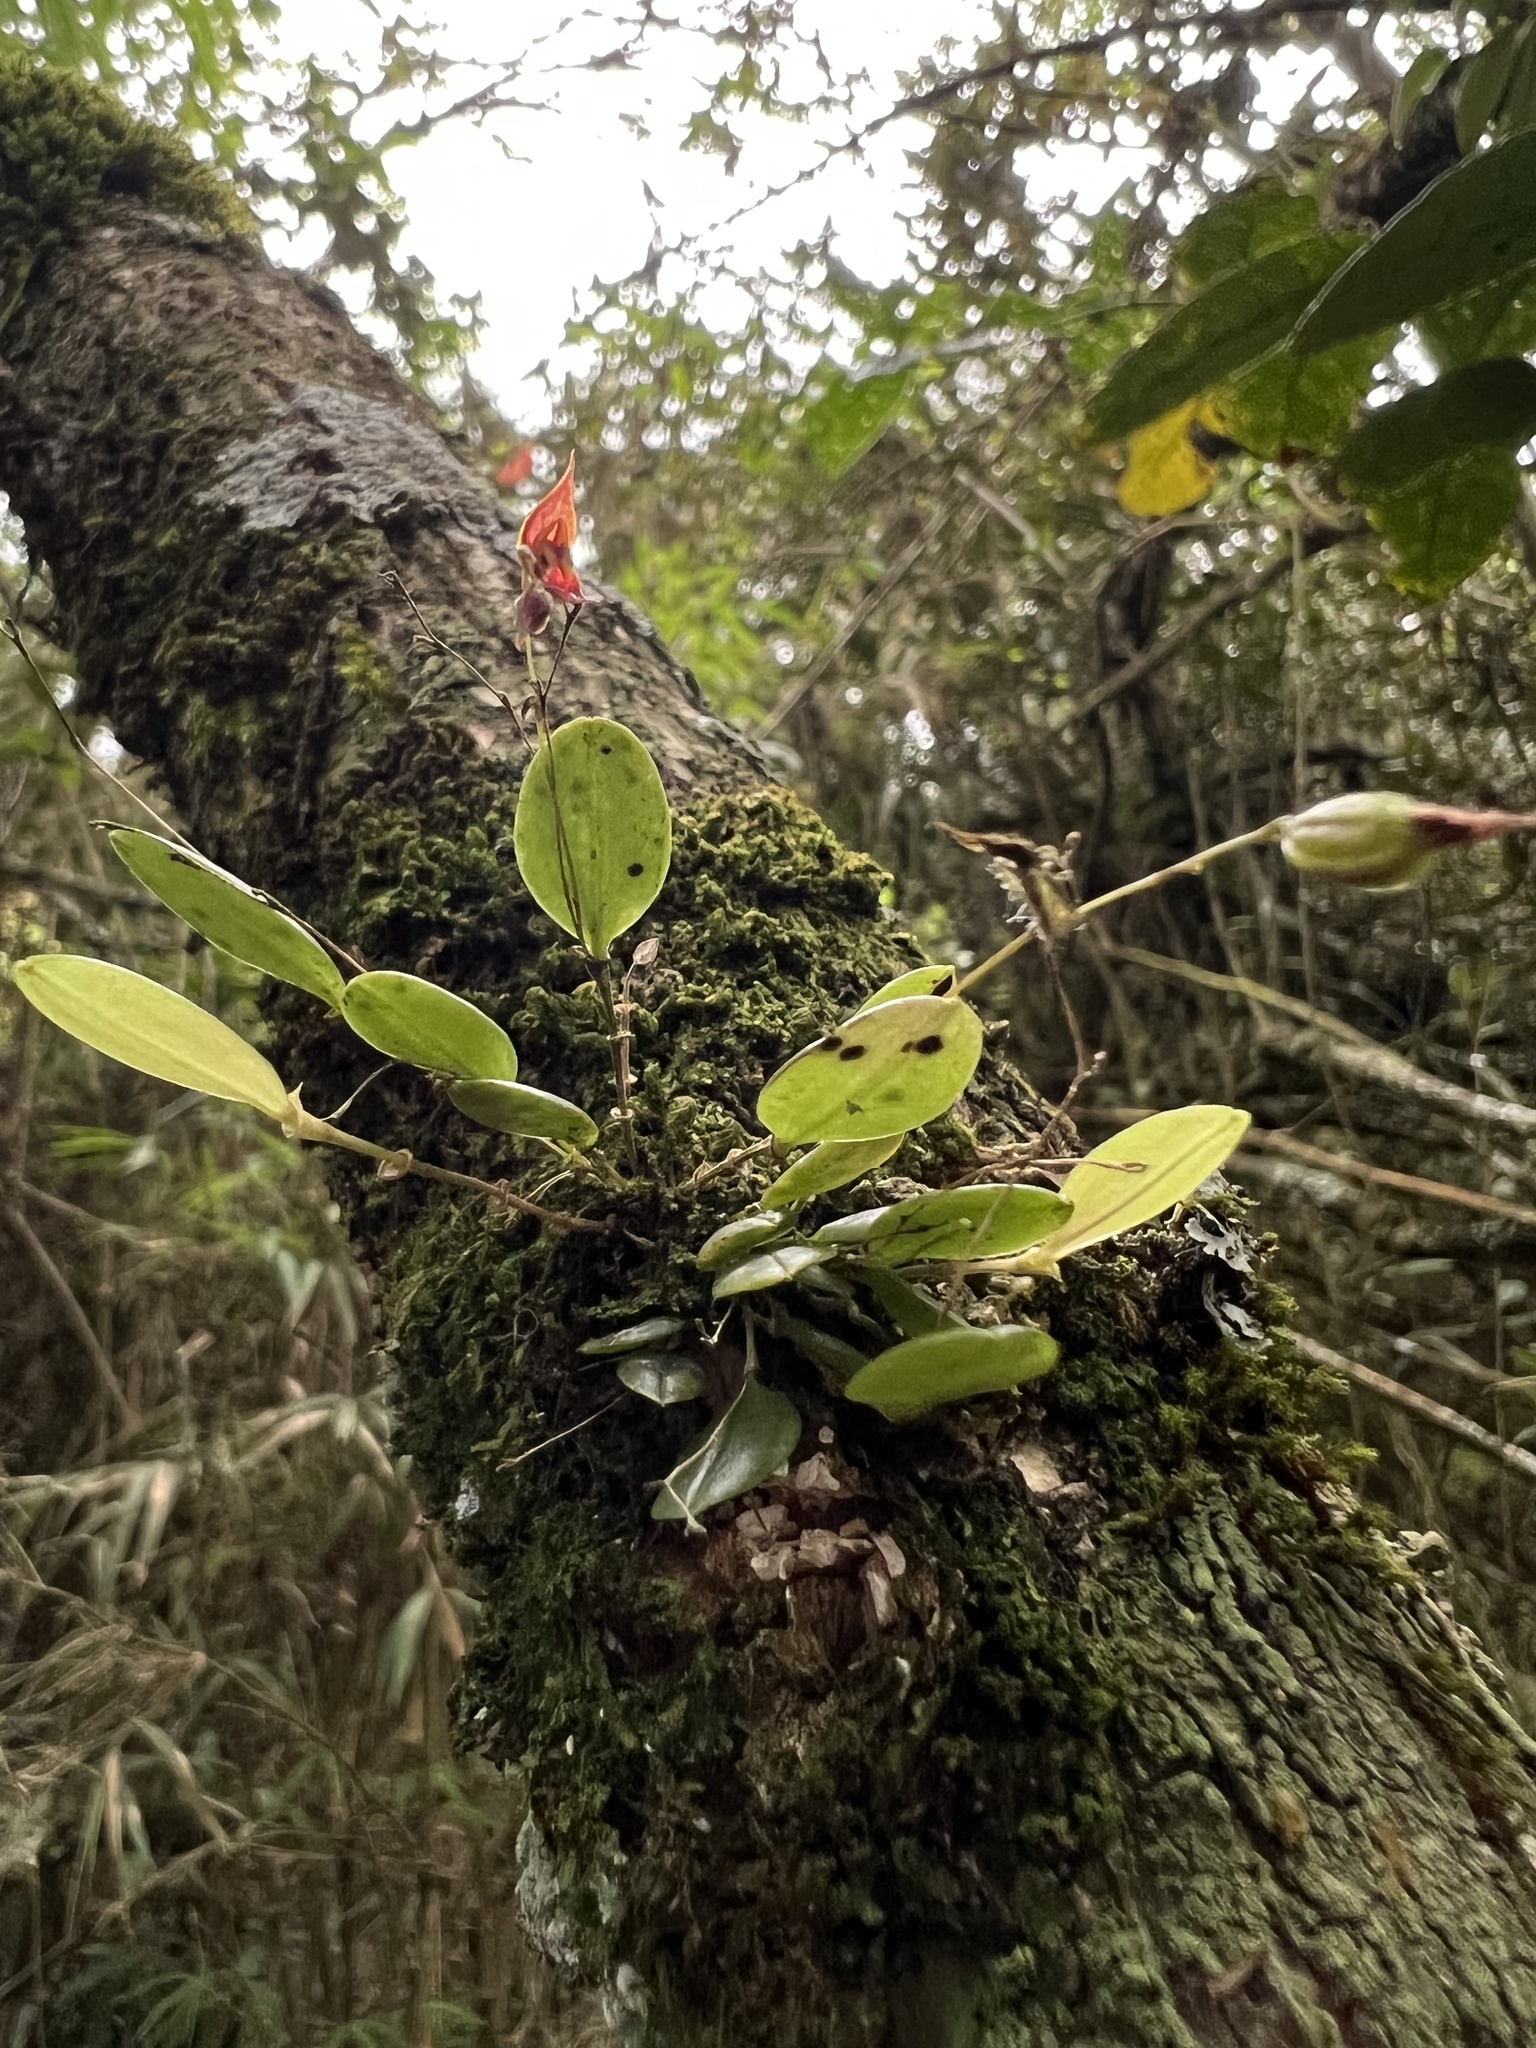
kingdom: Plantae
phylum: Tracheophyta
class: Liliopsida
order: Asparagales
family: Orchidaceae
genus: Lepanthes
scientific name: Lepanthes clausa
